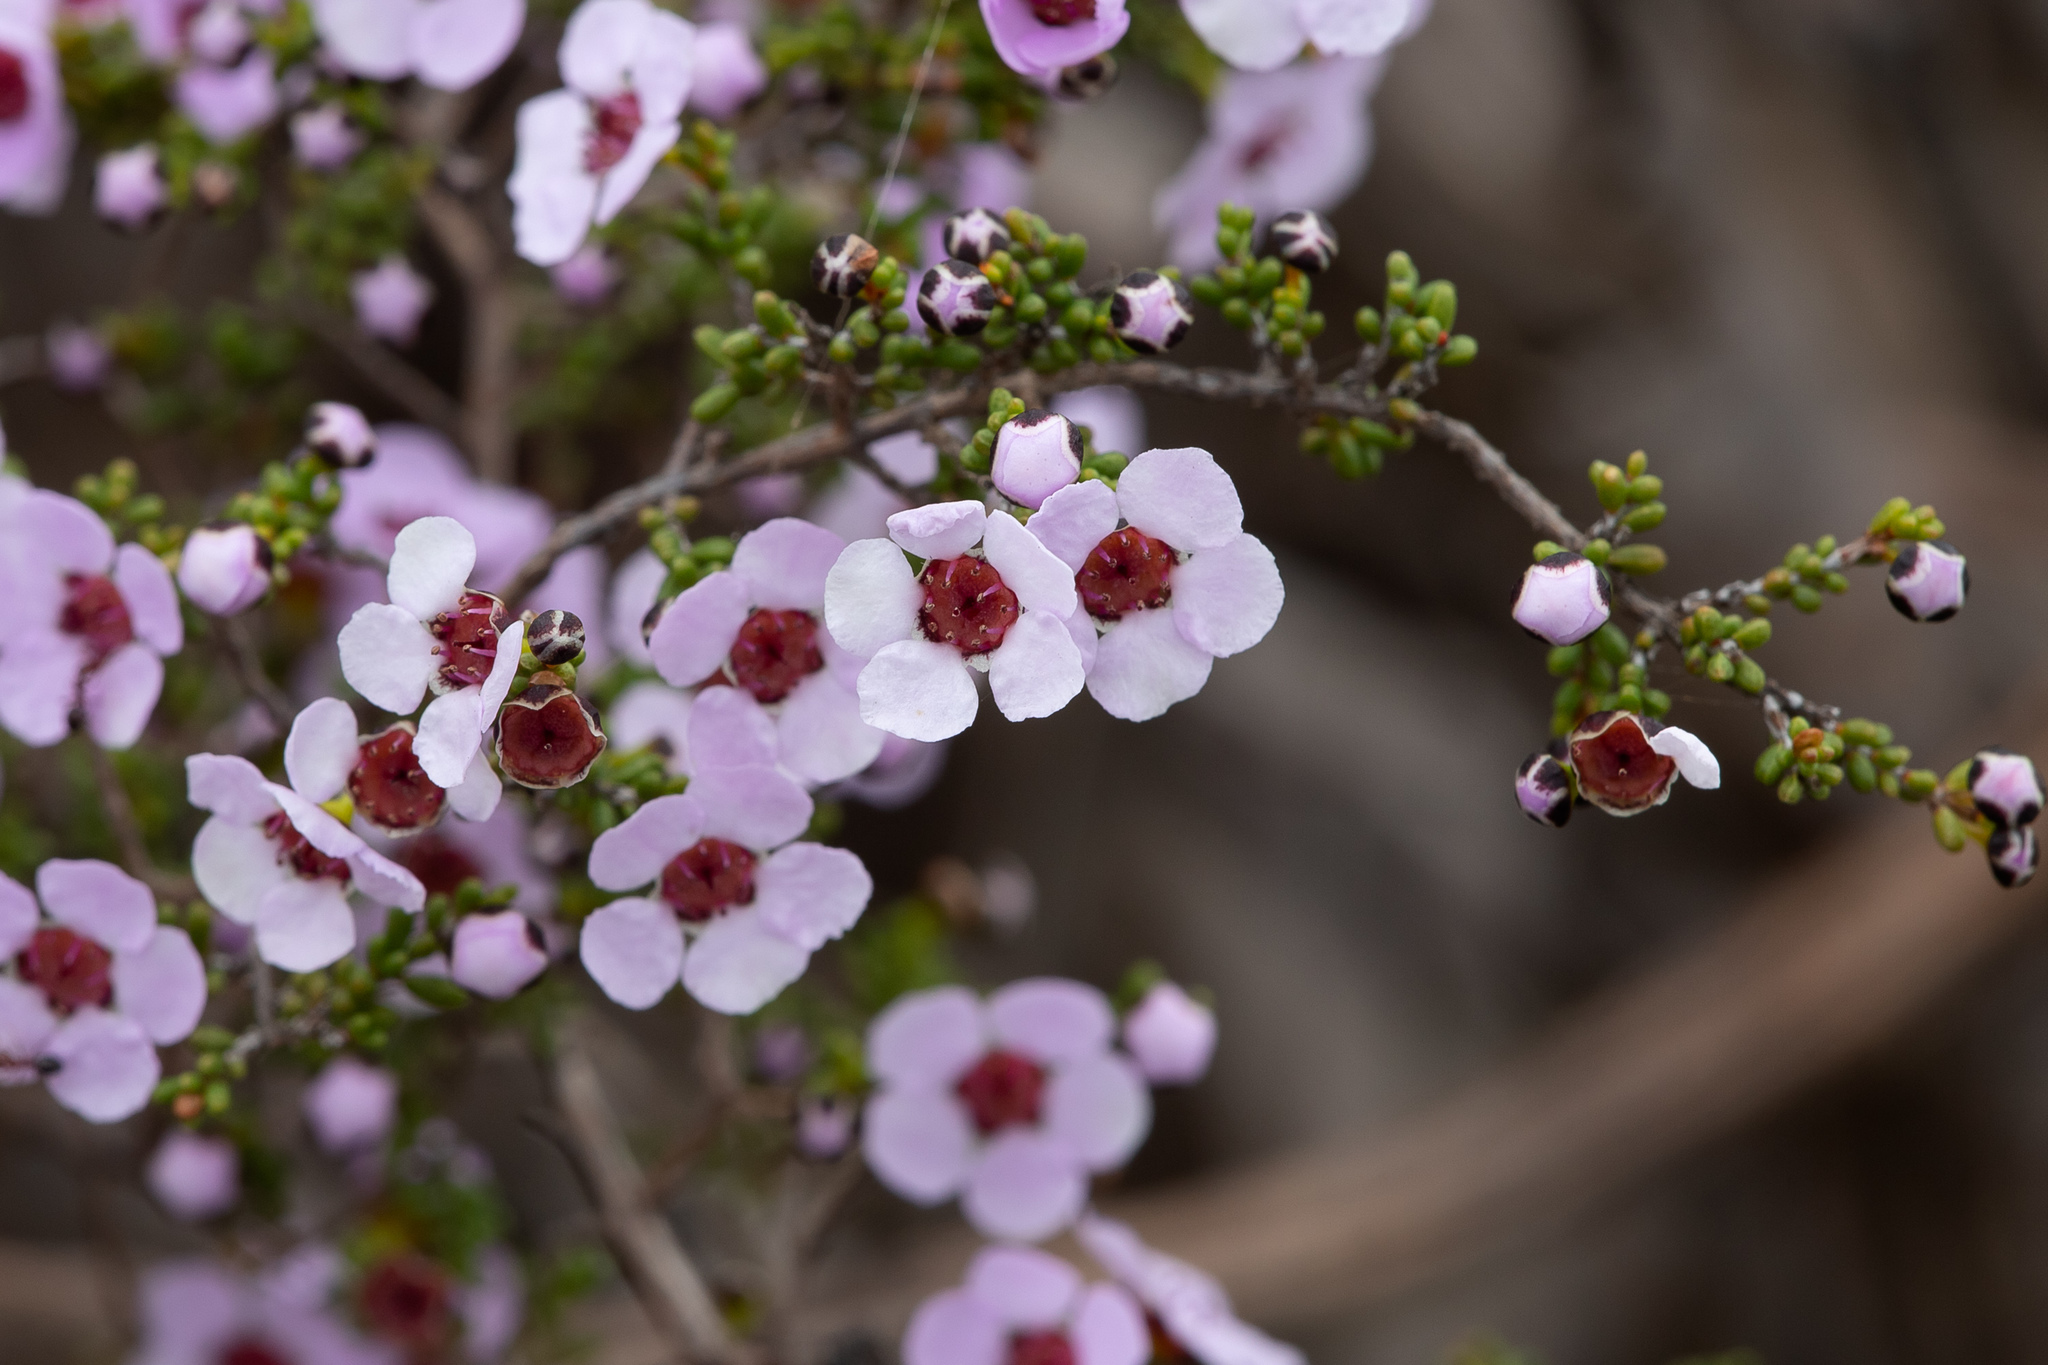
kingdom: Plantae
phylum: Tracheophyta
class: Magnoliopsida
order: Myrtales
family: Myrtaceae
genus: Rinzia
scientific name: Rinzia orientalis
